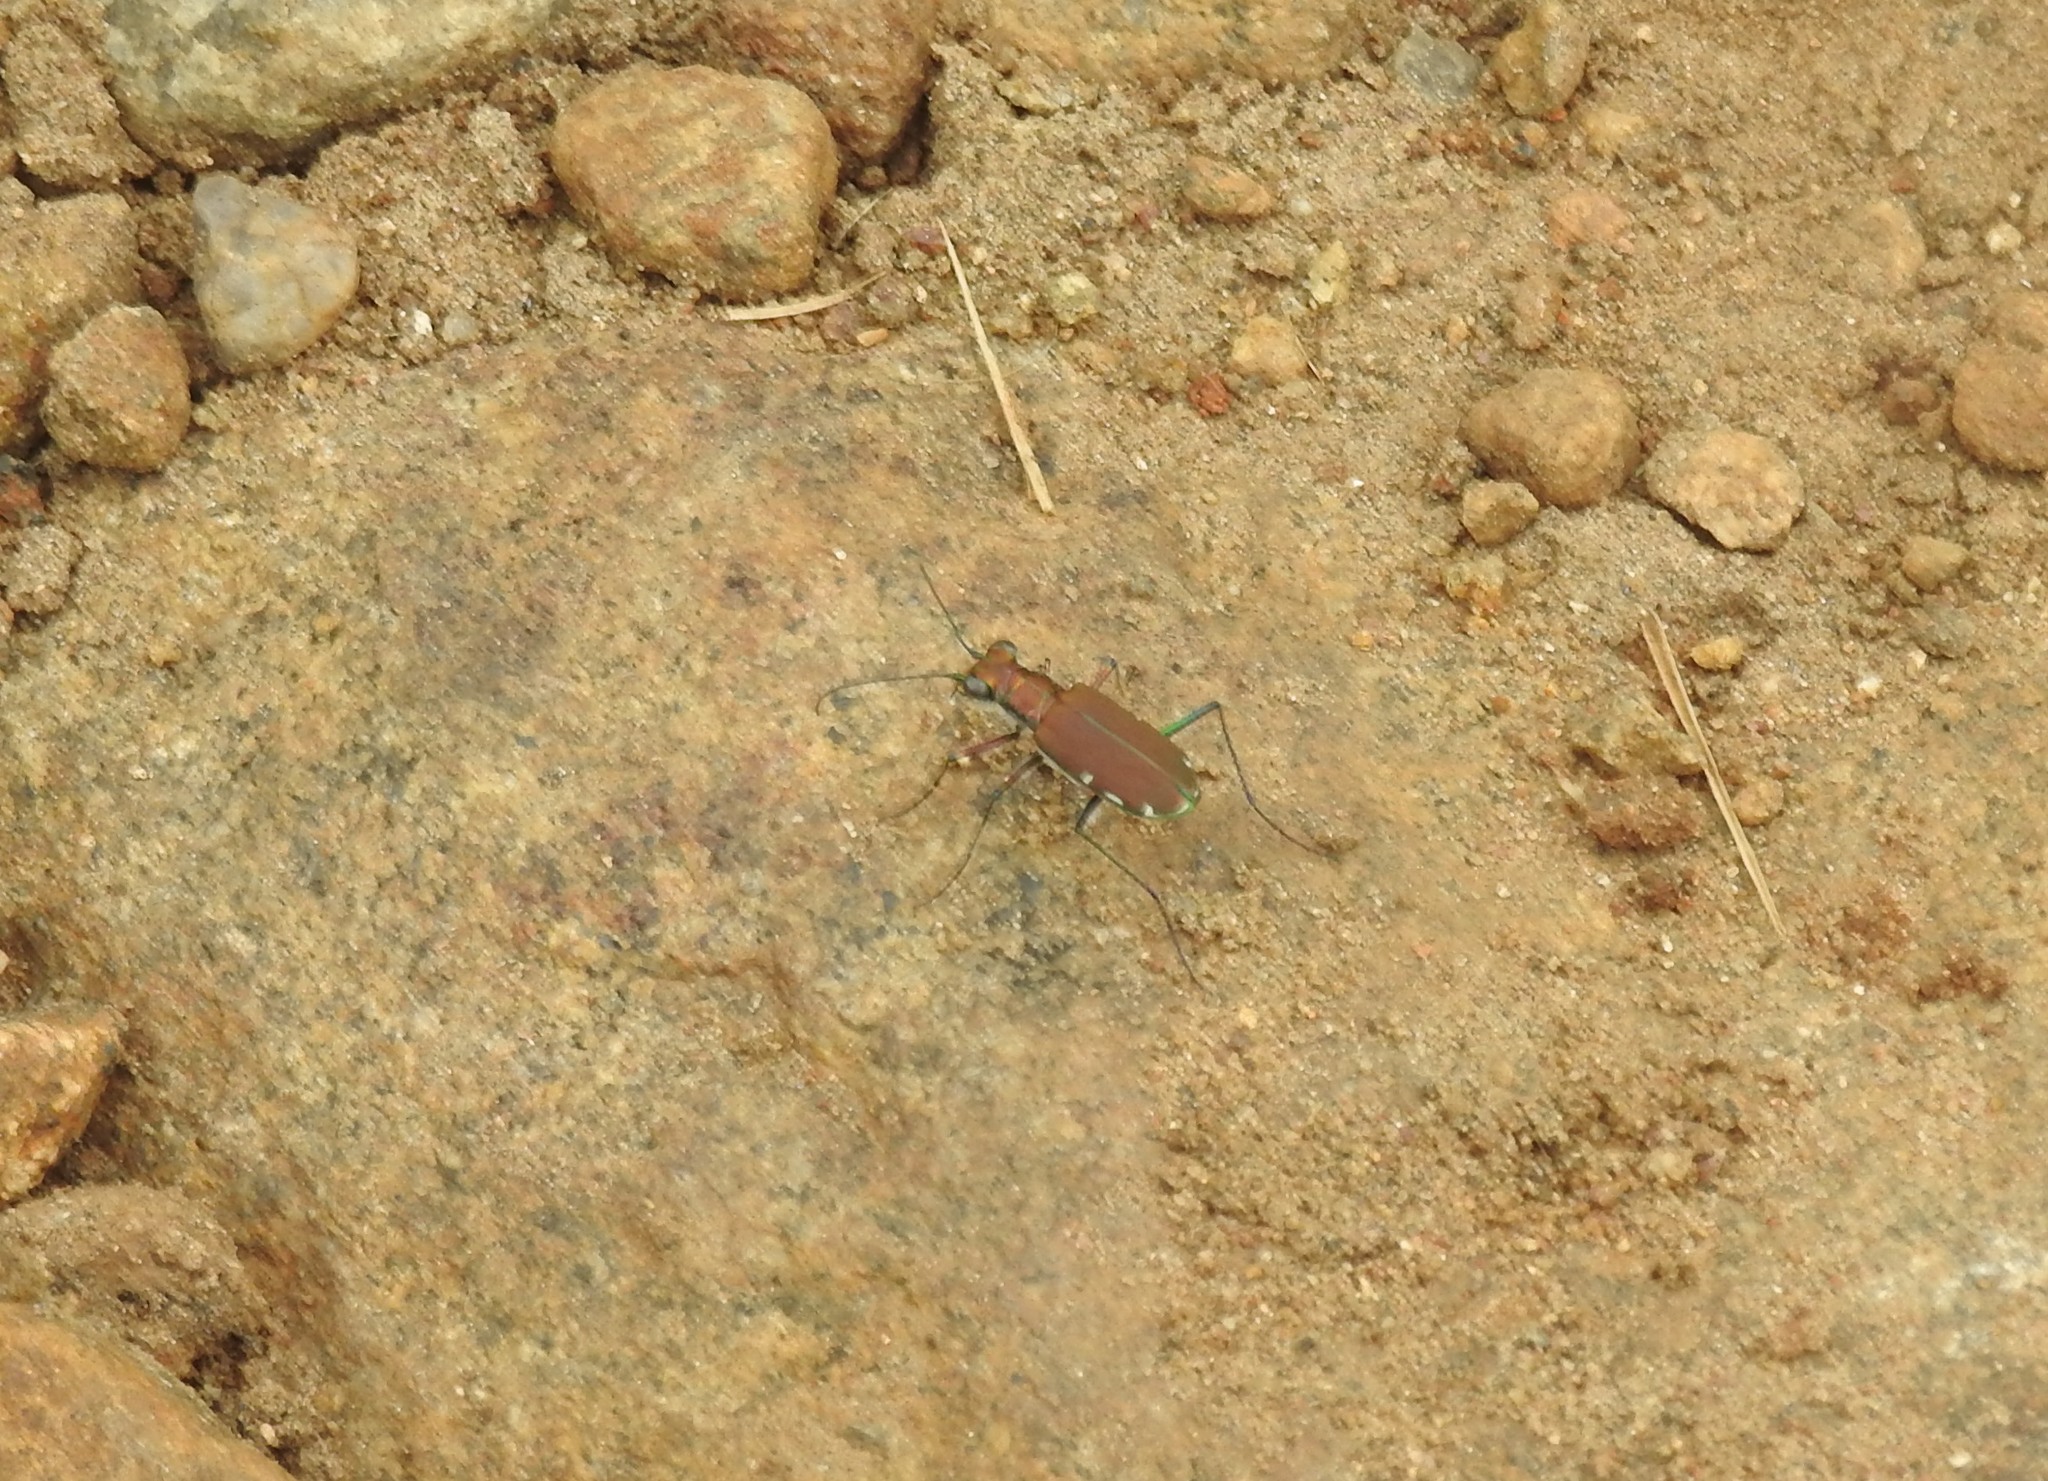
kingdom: Animalia
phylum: Arthropoda
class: Insecta
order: Coleoptera
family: Carabidae
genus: Cicindela
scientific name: Cicindela funerea
